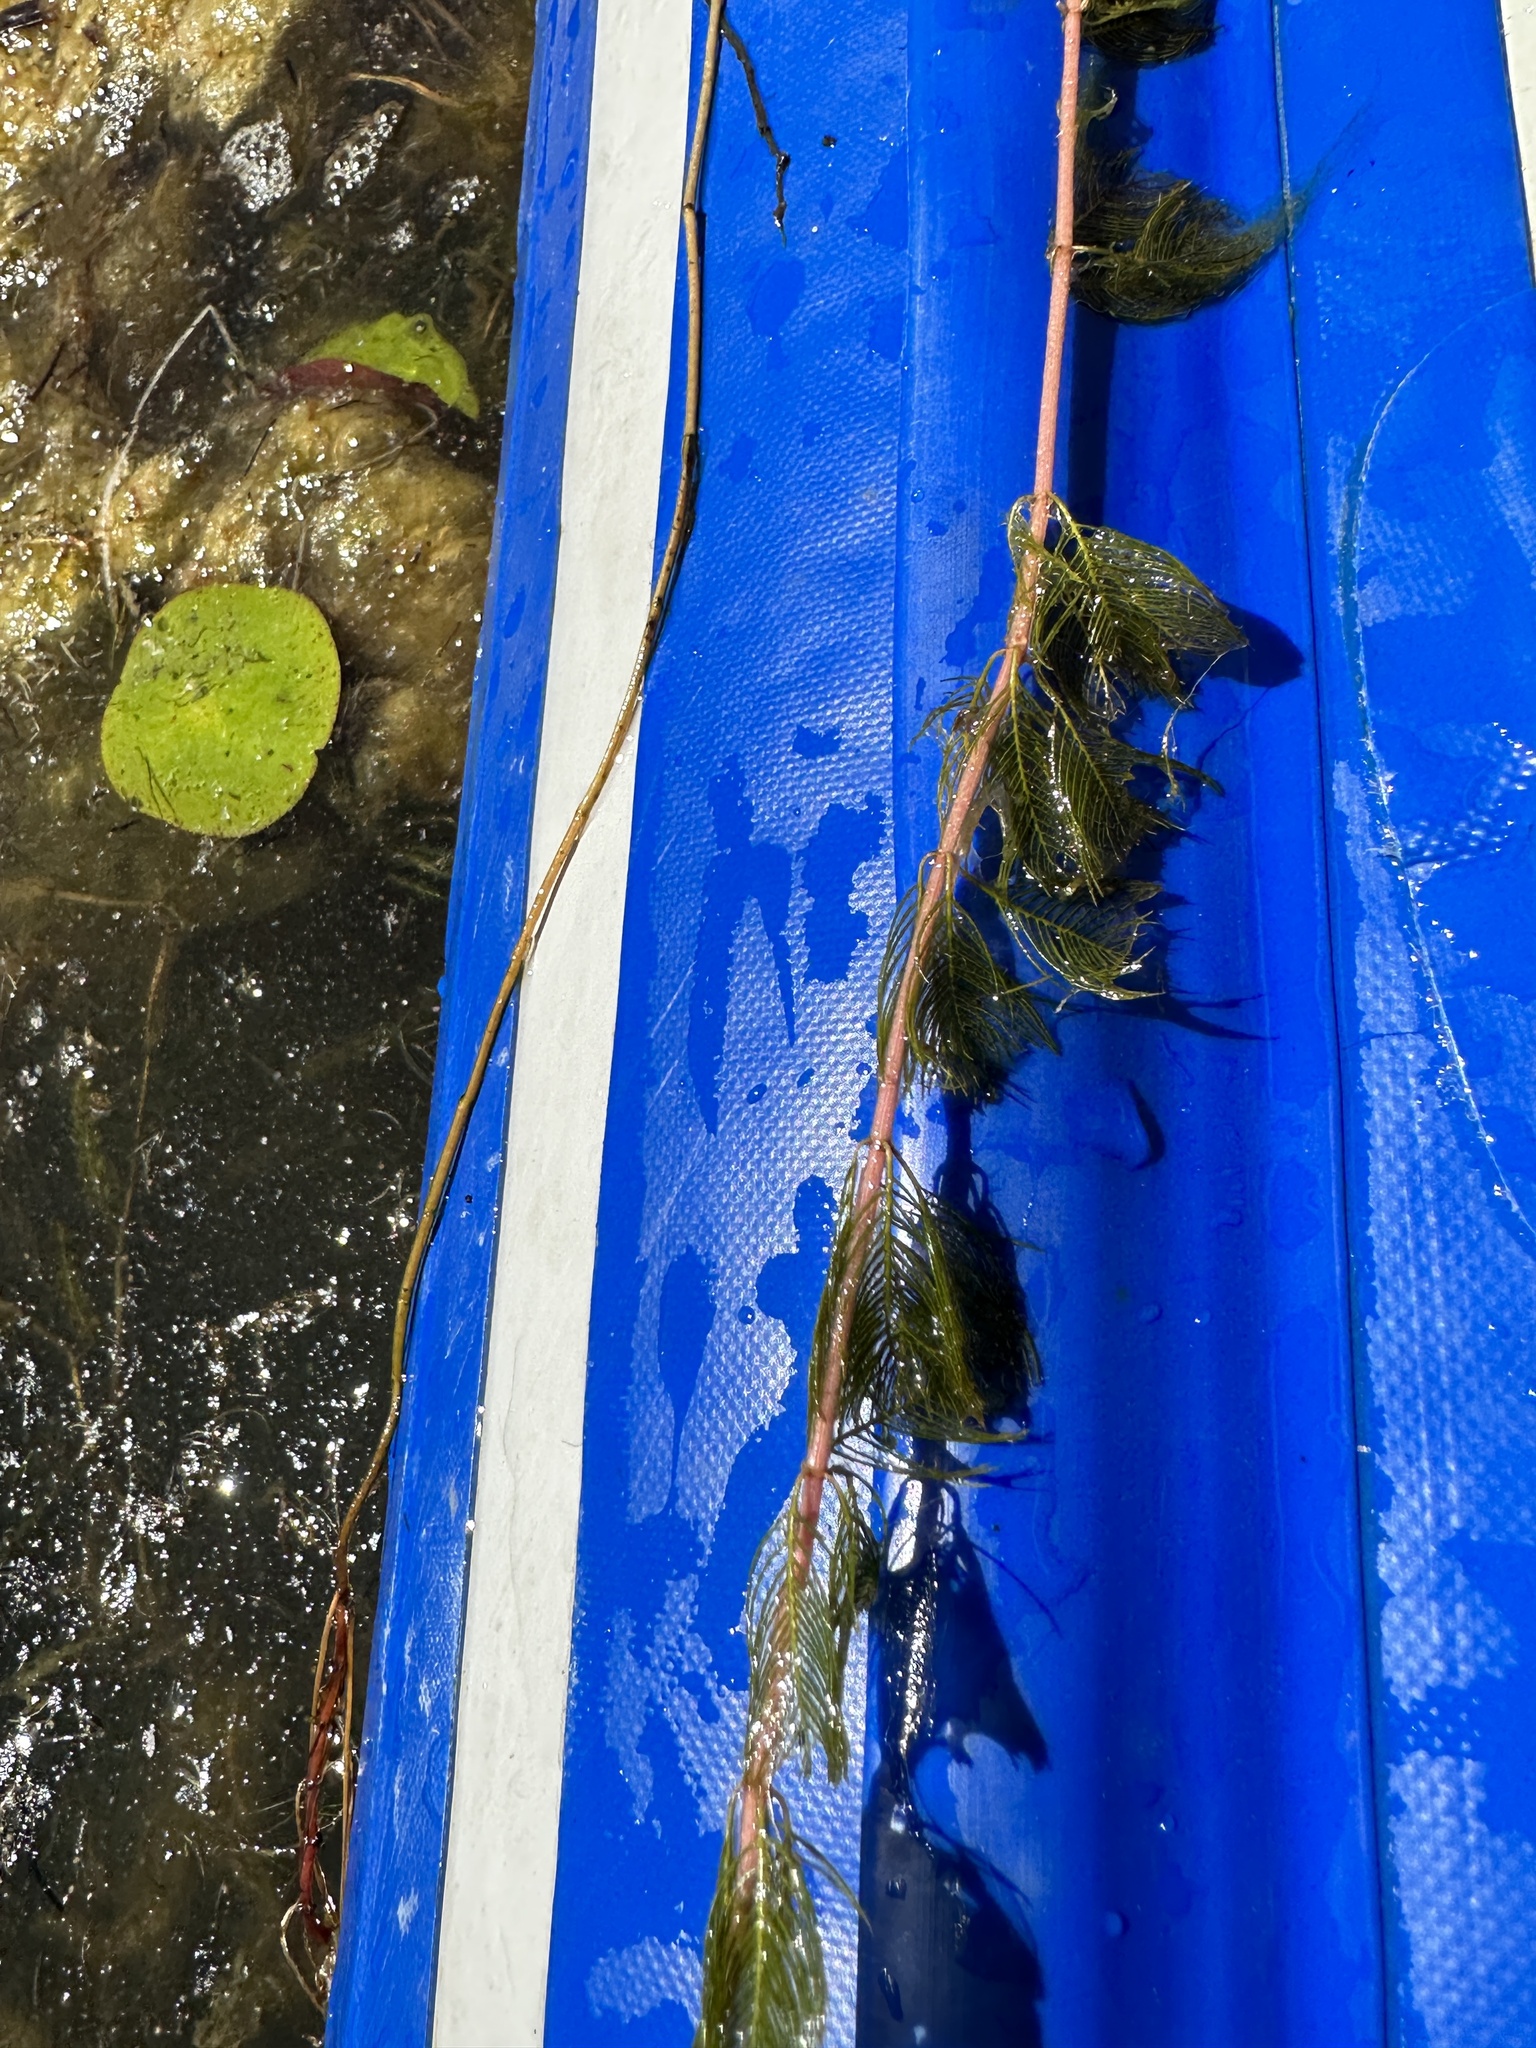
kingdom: Plantae
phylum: Tracheophyta
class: Magnoliopsida
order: Saxifragales
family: Haloragaceae
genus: Myriophyllum
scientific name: Myriophyllum spicatum
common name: Spiked water-milfoil
